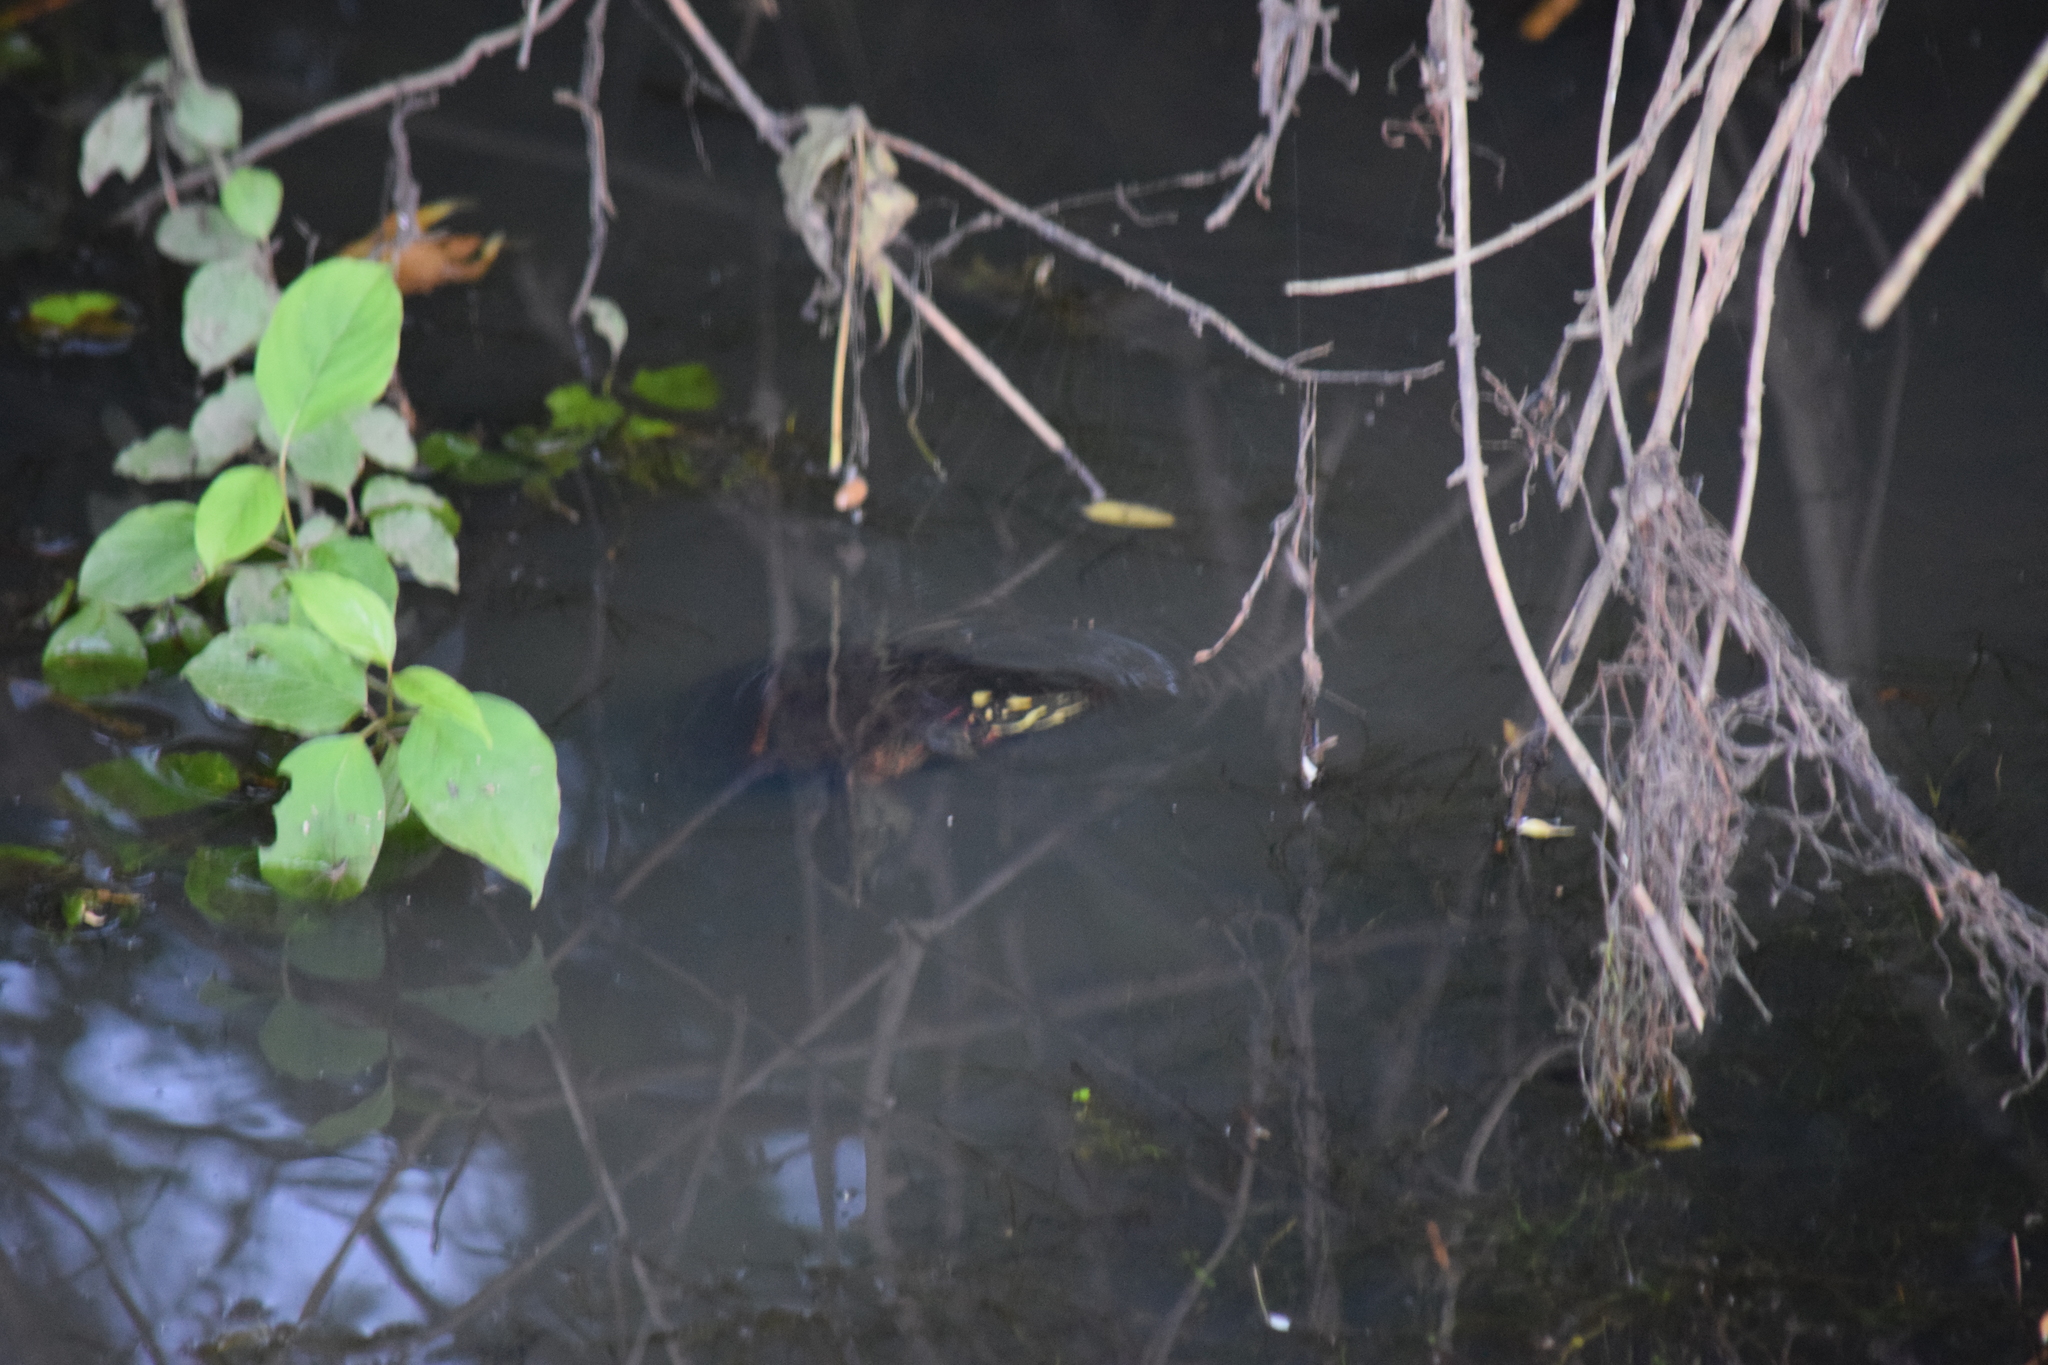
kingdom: Animalia
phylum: Chordata
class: Testudines
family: Emydidae
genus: Chrysemys
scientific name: Chrysemys picta
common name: Painted turtle
